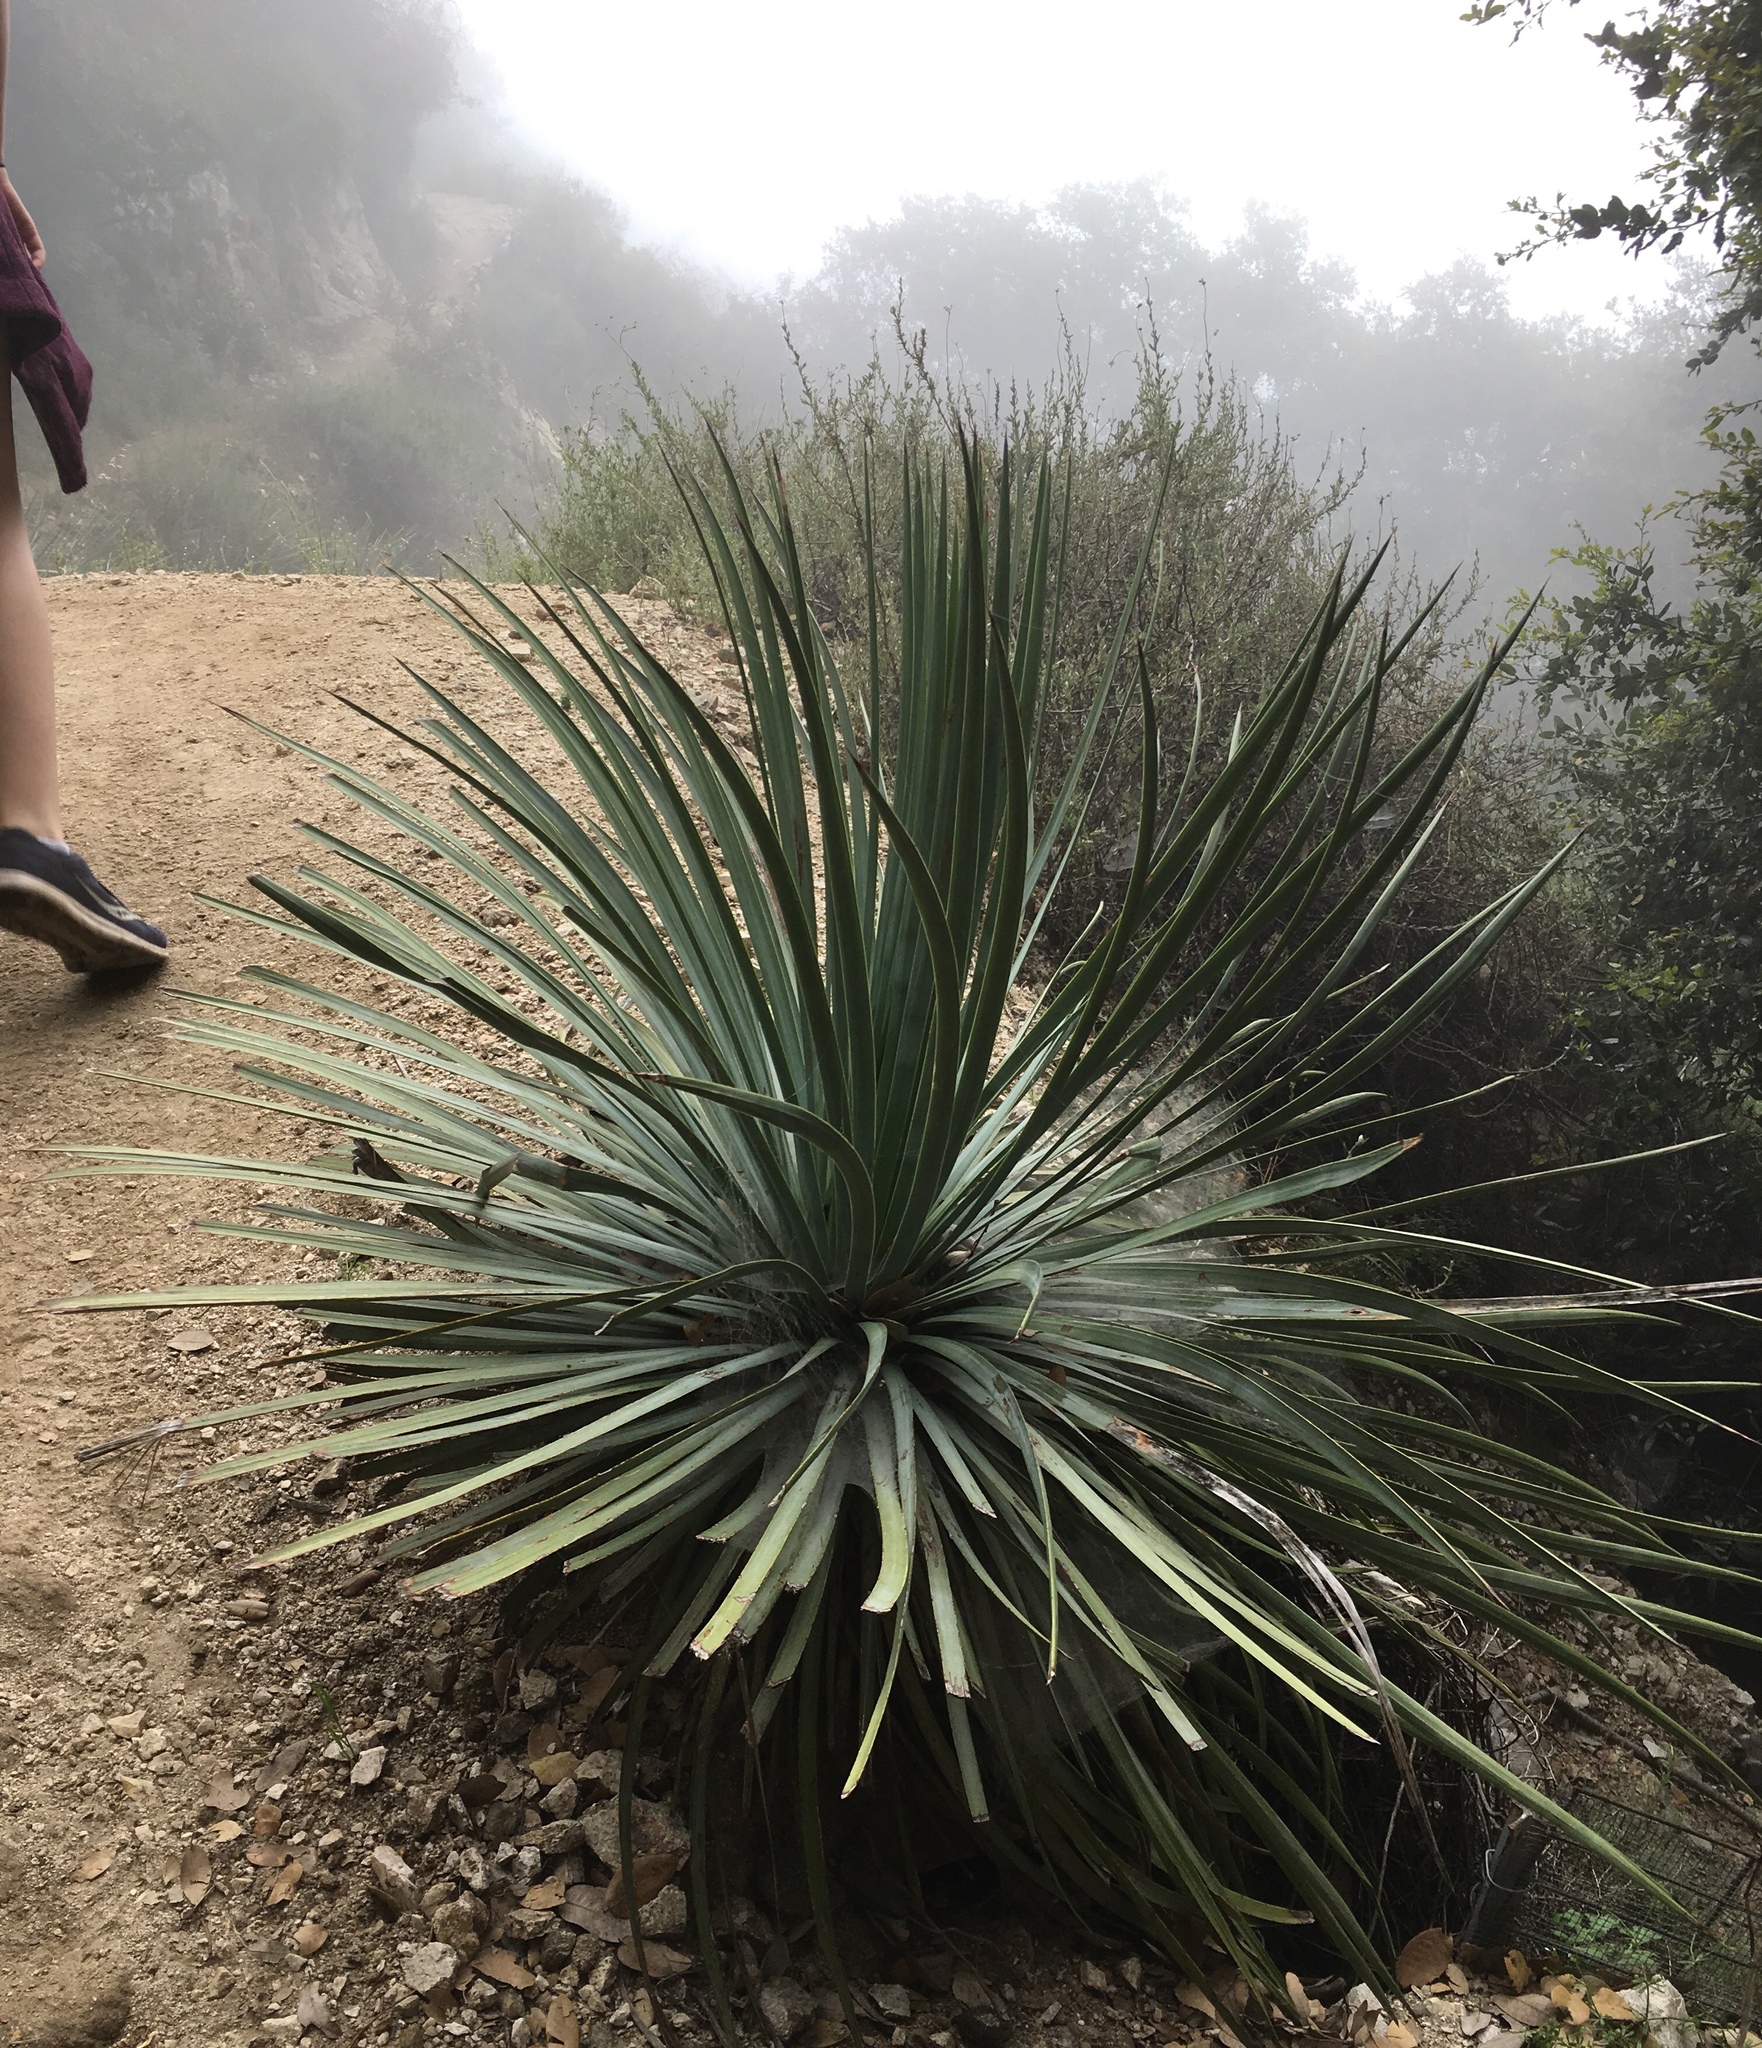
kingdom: Plantae
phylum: Tracheophyta
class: Liliopsida
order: Asparagales
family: Asparagaceae
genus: Hesperoyucca
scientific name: Hesperoyucca whipplei
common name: Our lord's-candle
